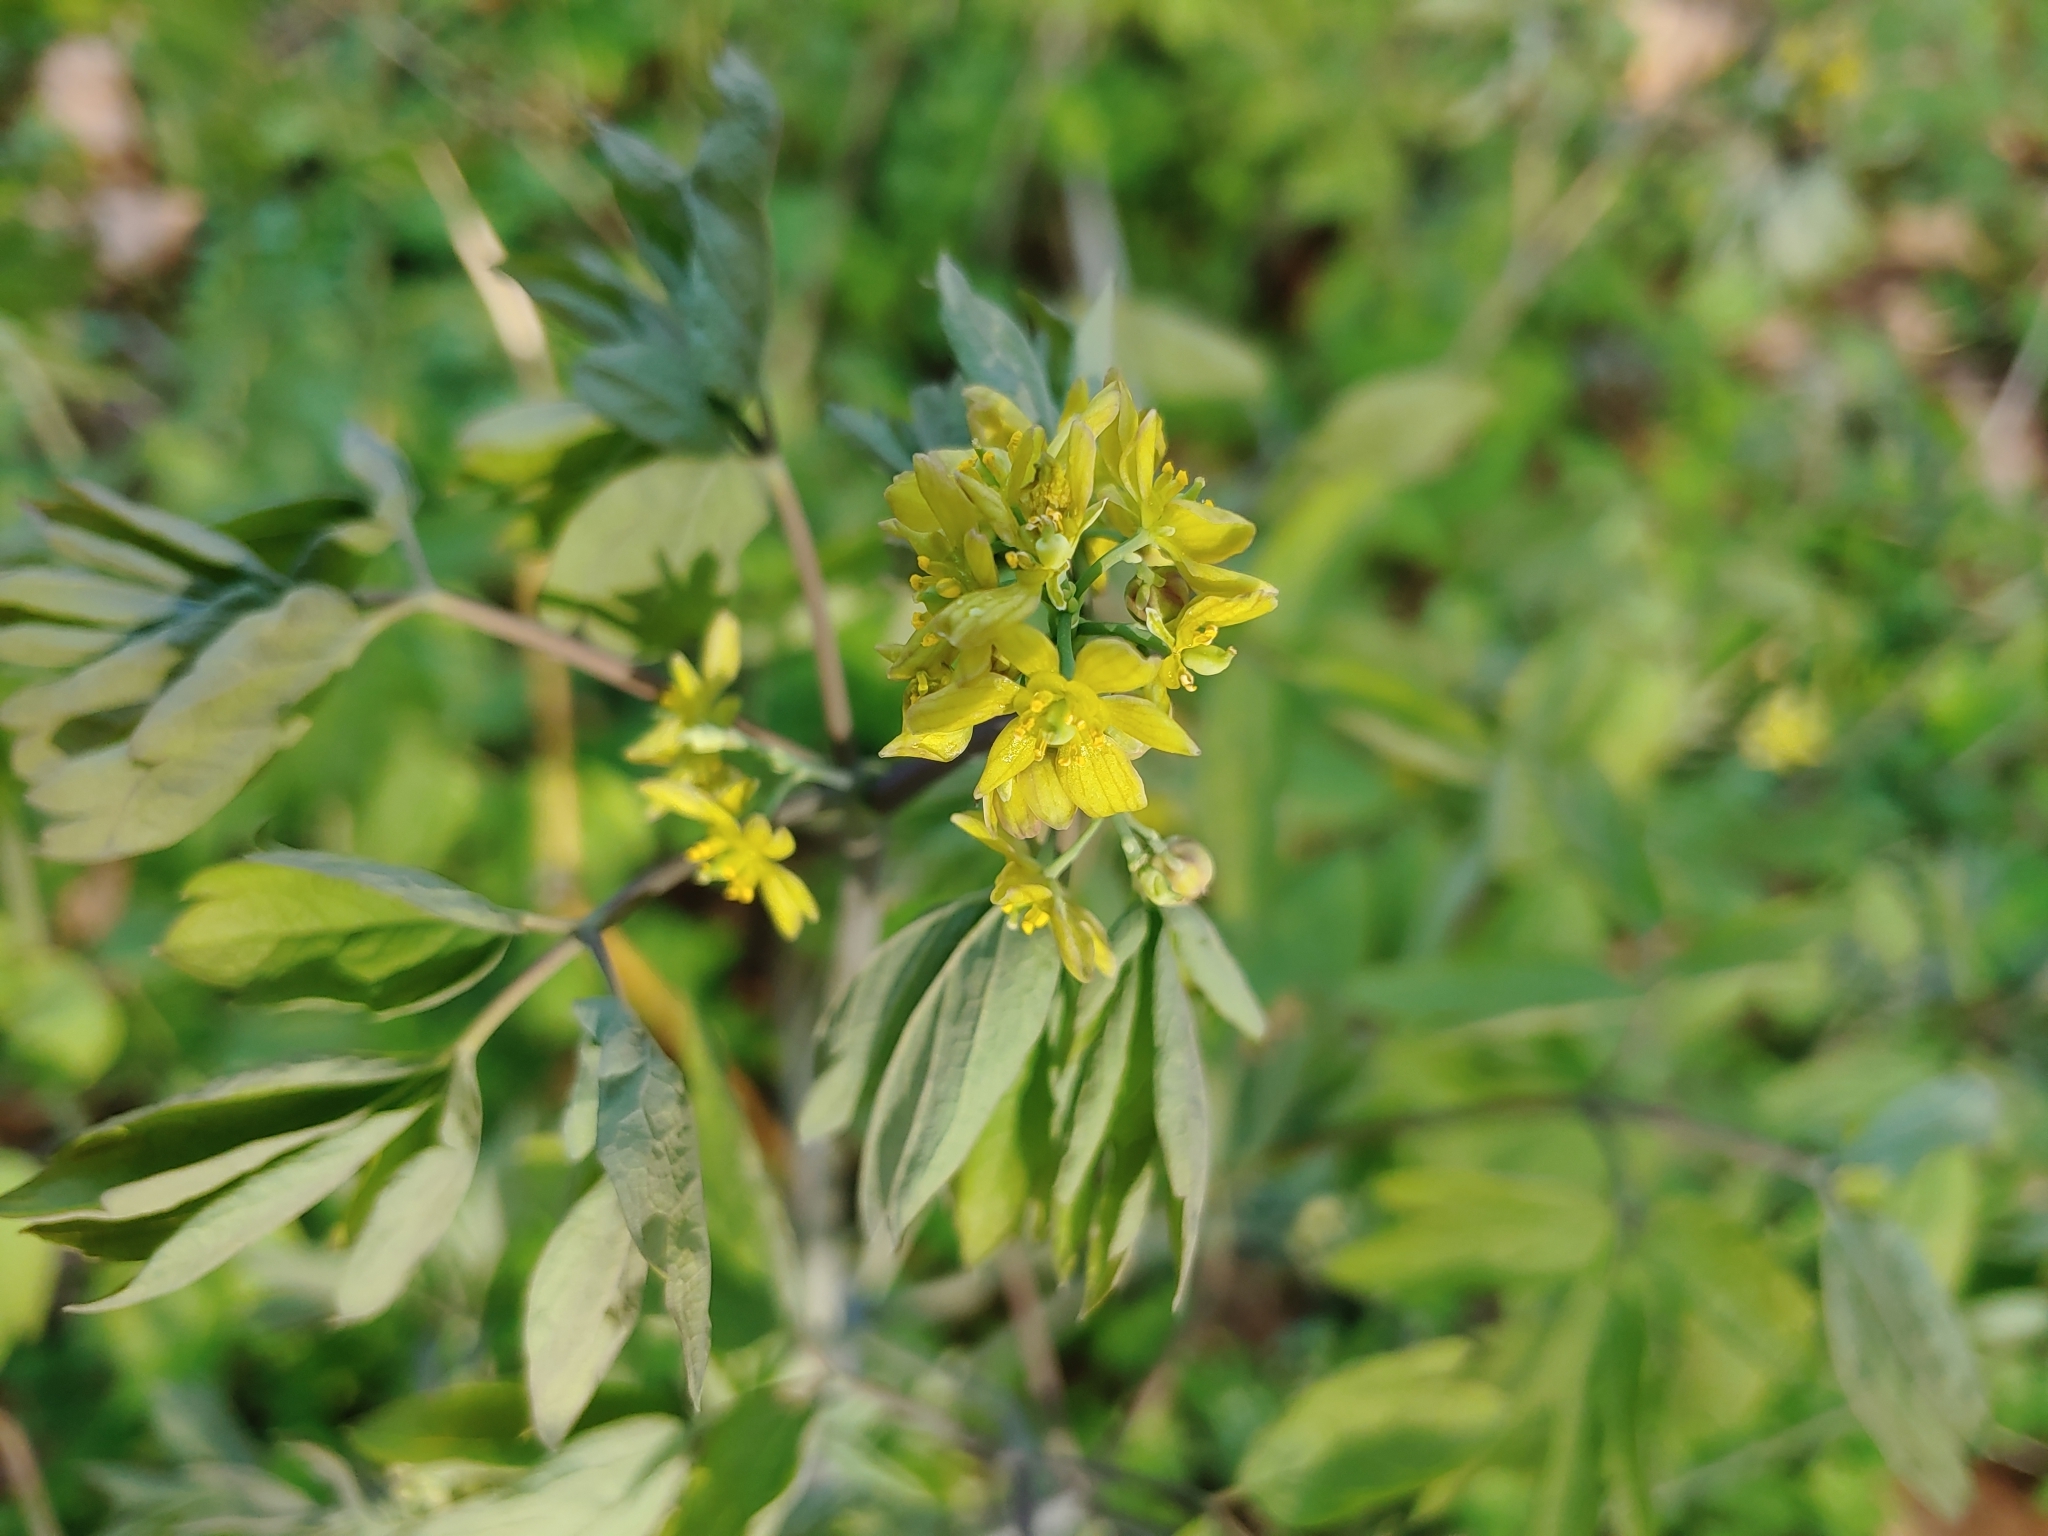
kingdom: Plantae
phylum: Tracheophyta
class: Magnoliopsida
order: Ranunculales
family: Berberidaceae
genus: Caulophyllum
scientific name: Caulophyllum thalictroides
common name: Blue cohosh
